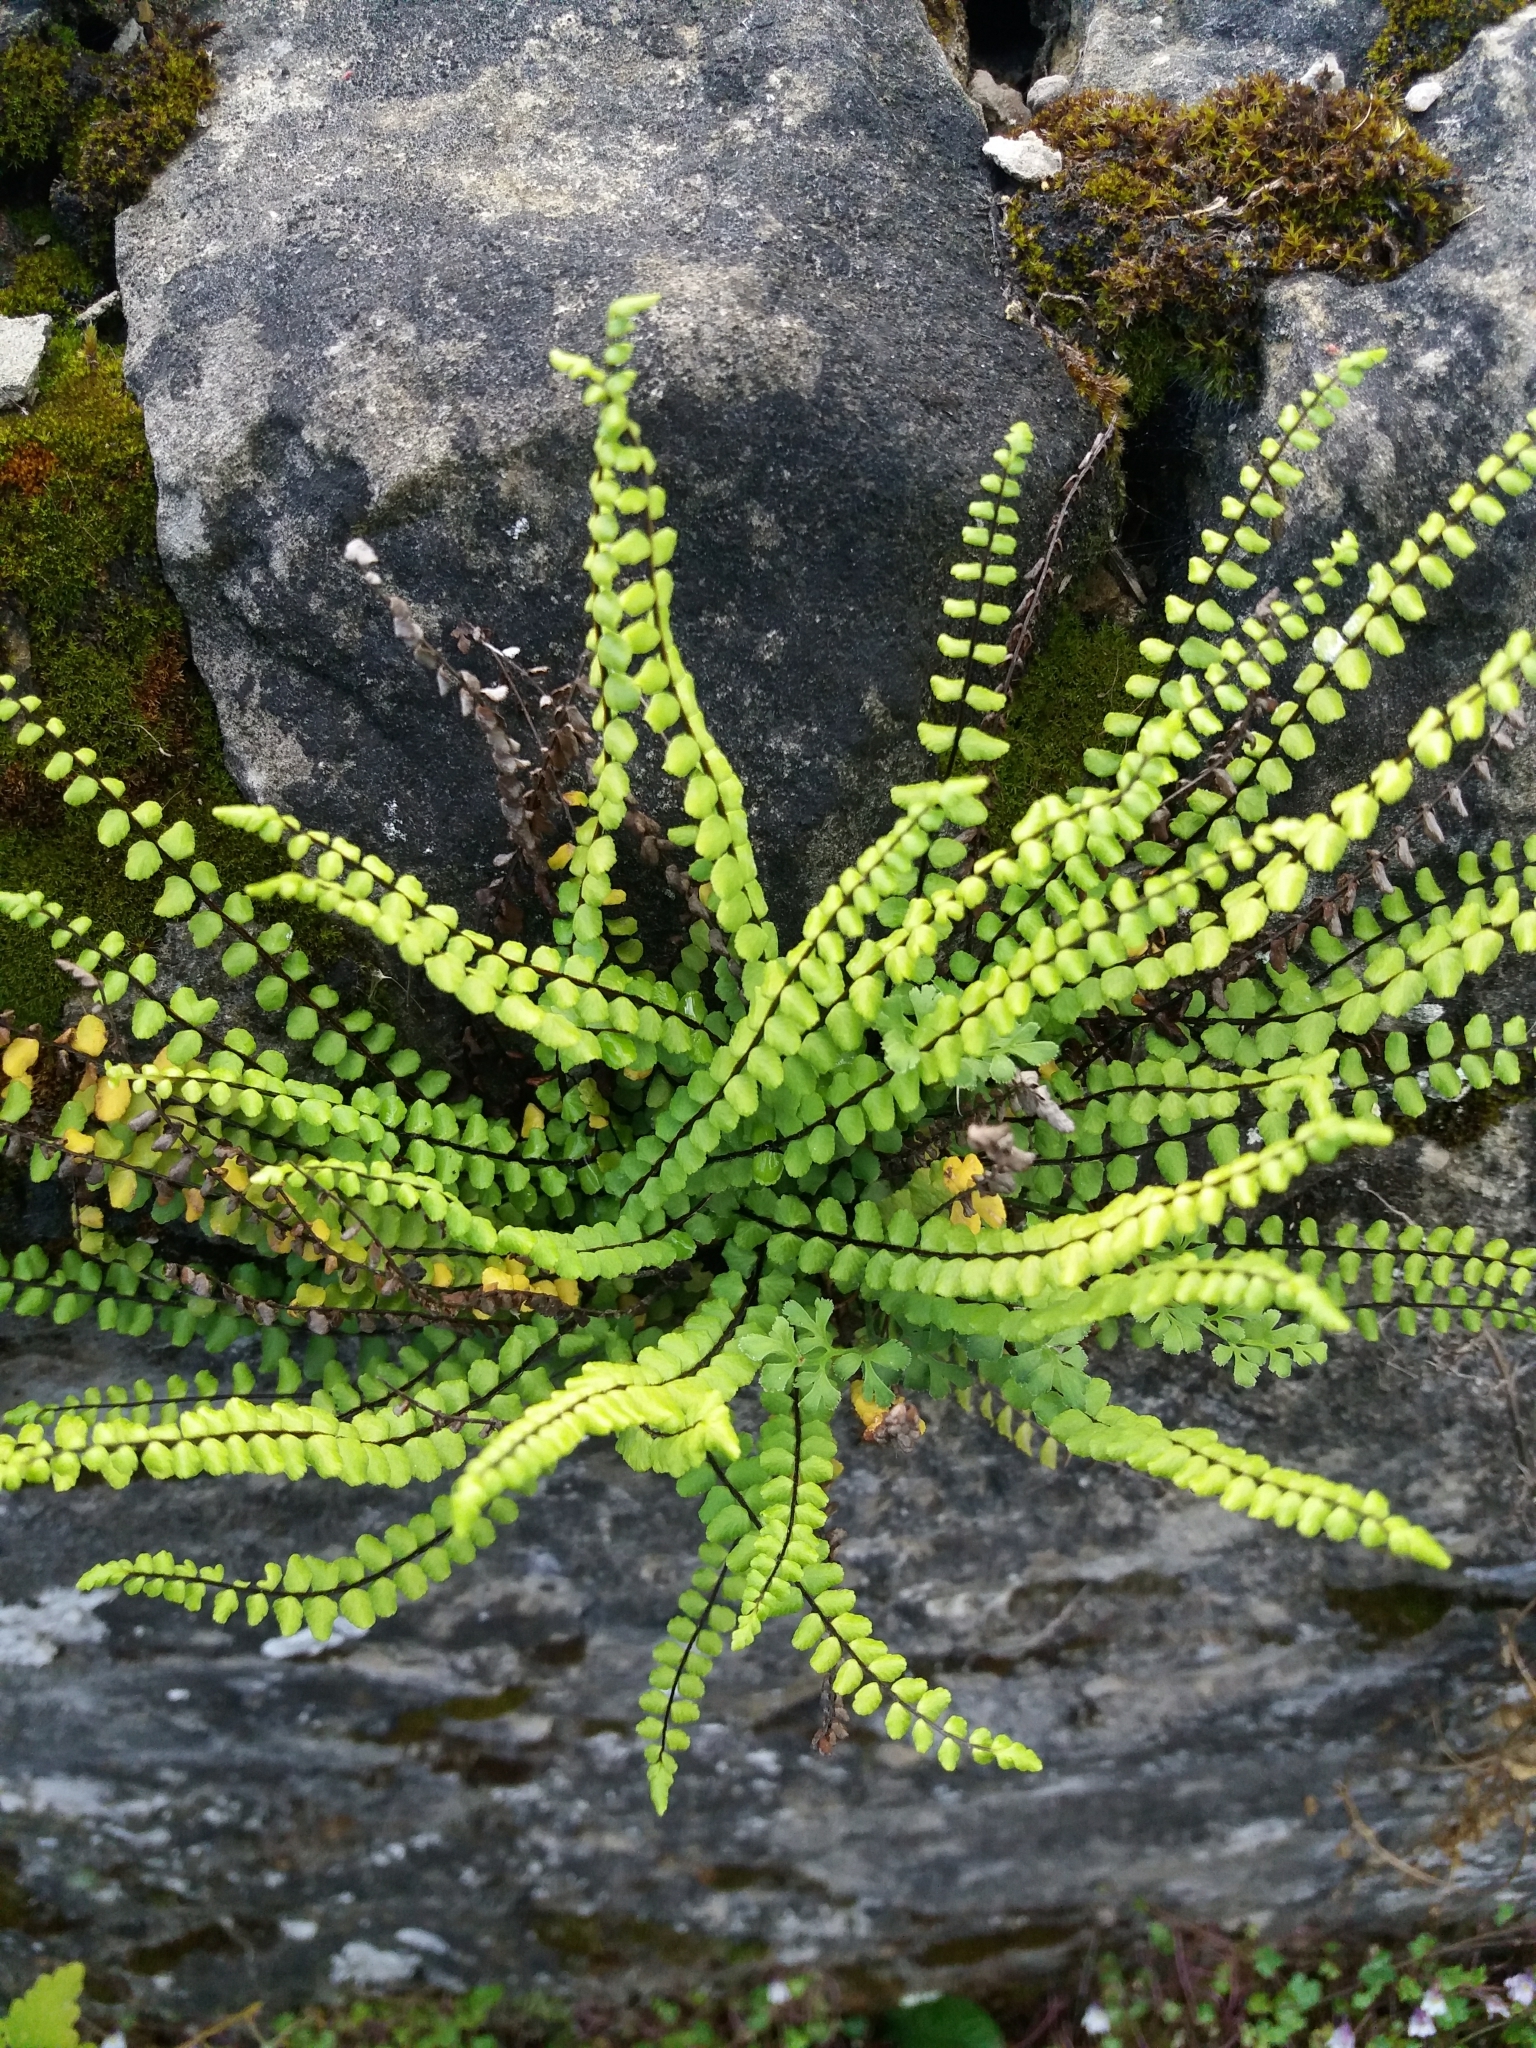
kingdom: Plantae
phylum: Tracheophyta
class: Polypodiopsida
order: Polypodiales
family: Aspleniaceae
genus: Asplenium
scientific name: Asplenium trichomanes
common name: Maidenhair spleenwort
